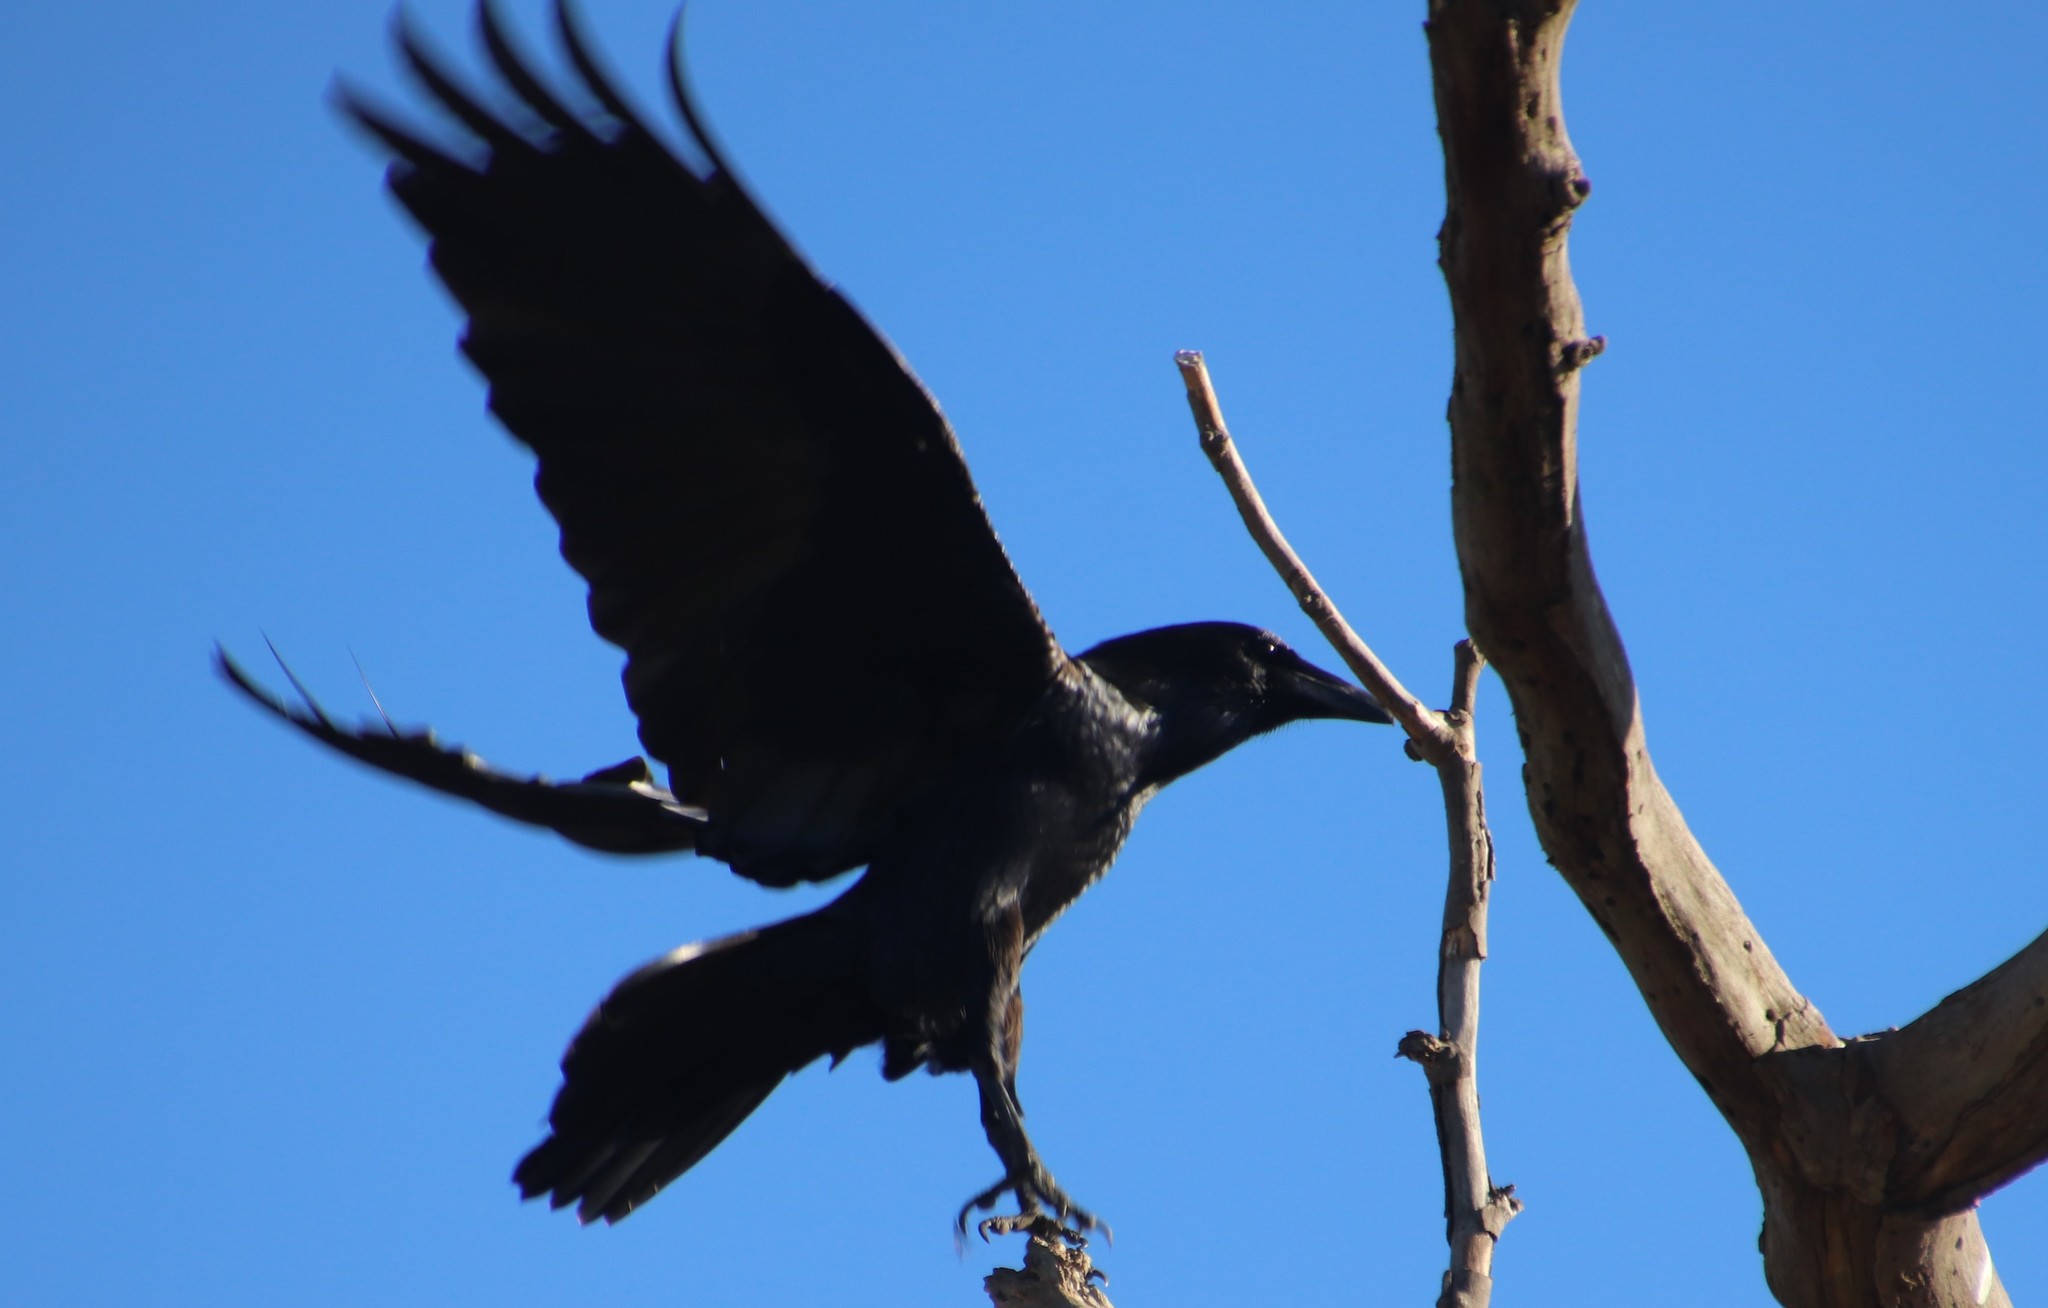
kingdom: Animalia
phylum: Chordata
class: Aves
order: Passeriformes
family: Corvidae
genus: Corvus
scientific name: Corvus corax
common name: Common raven
